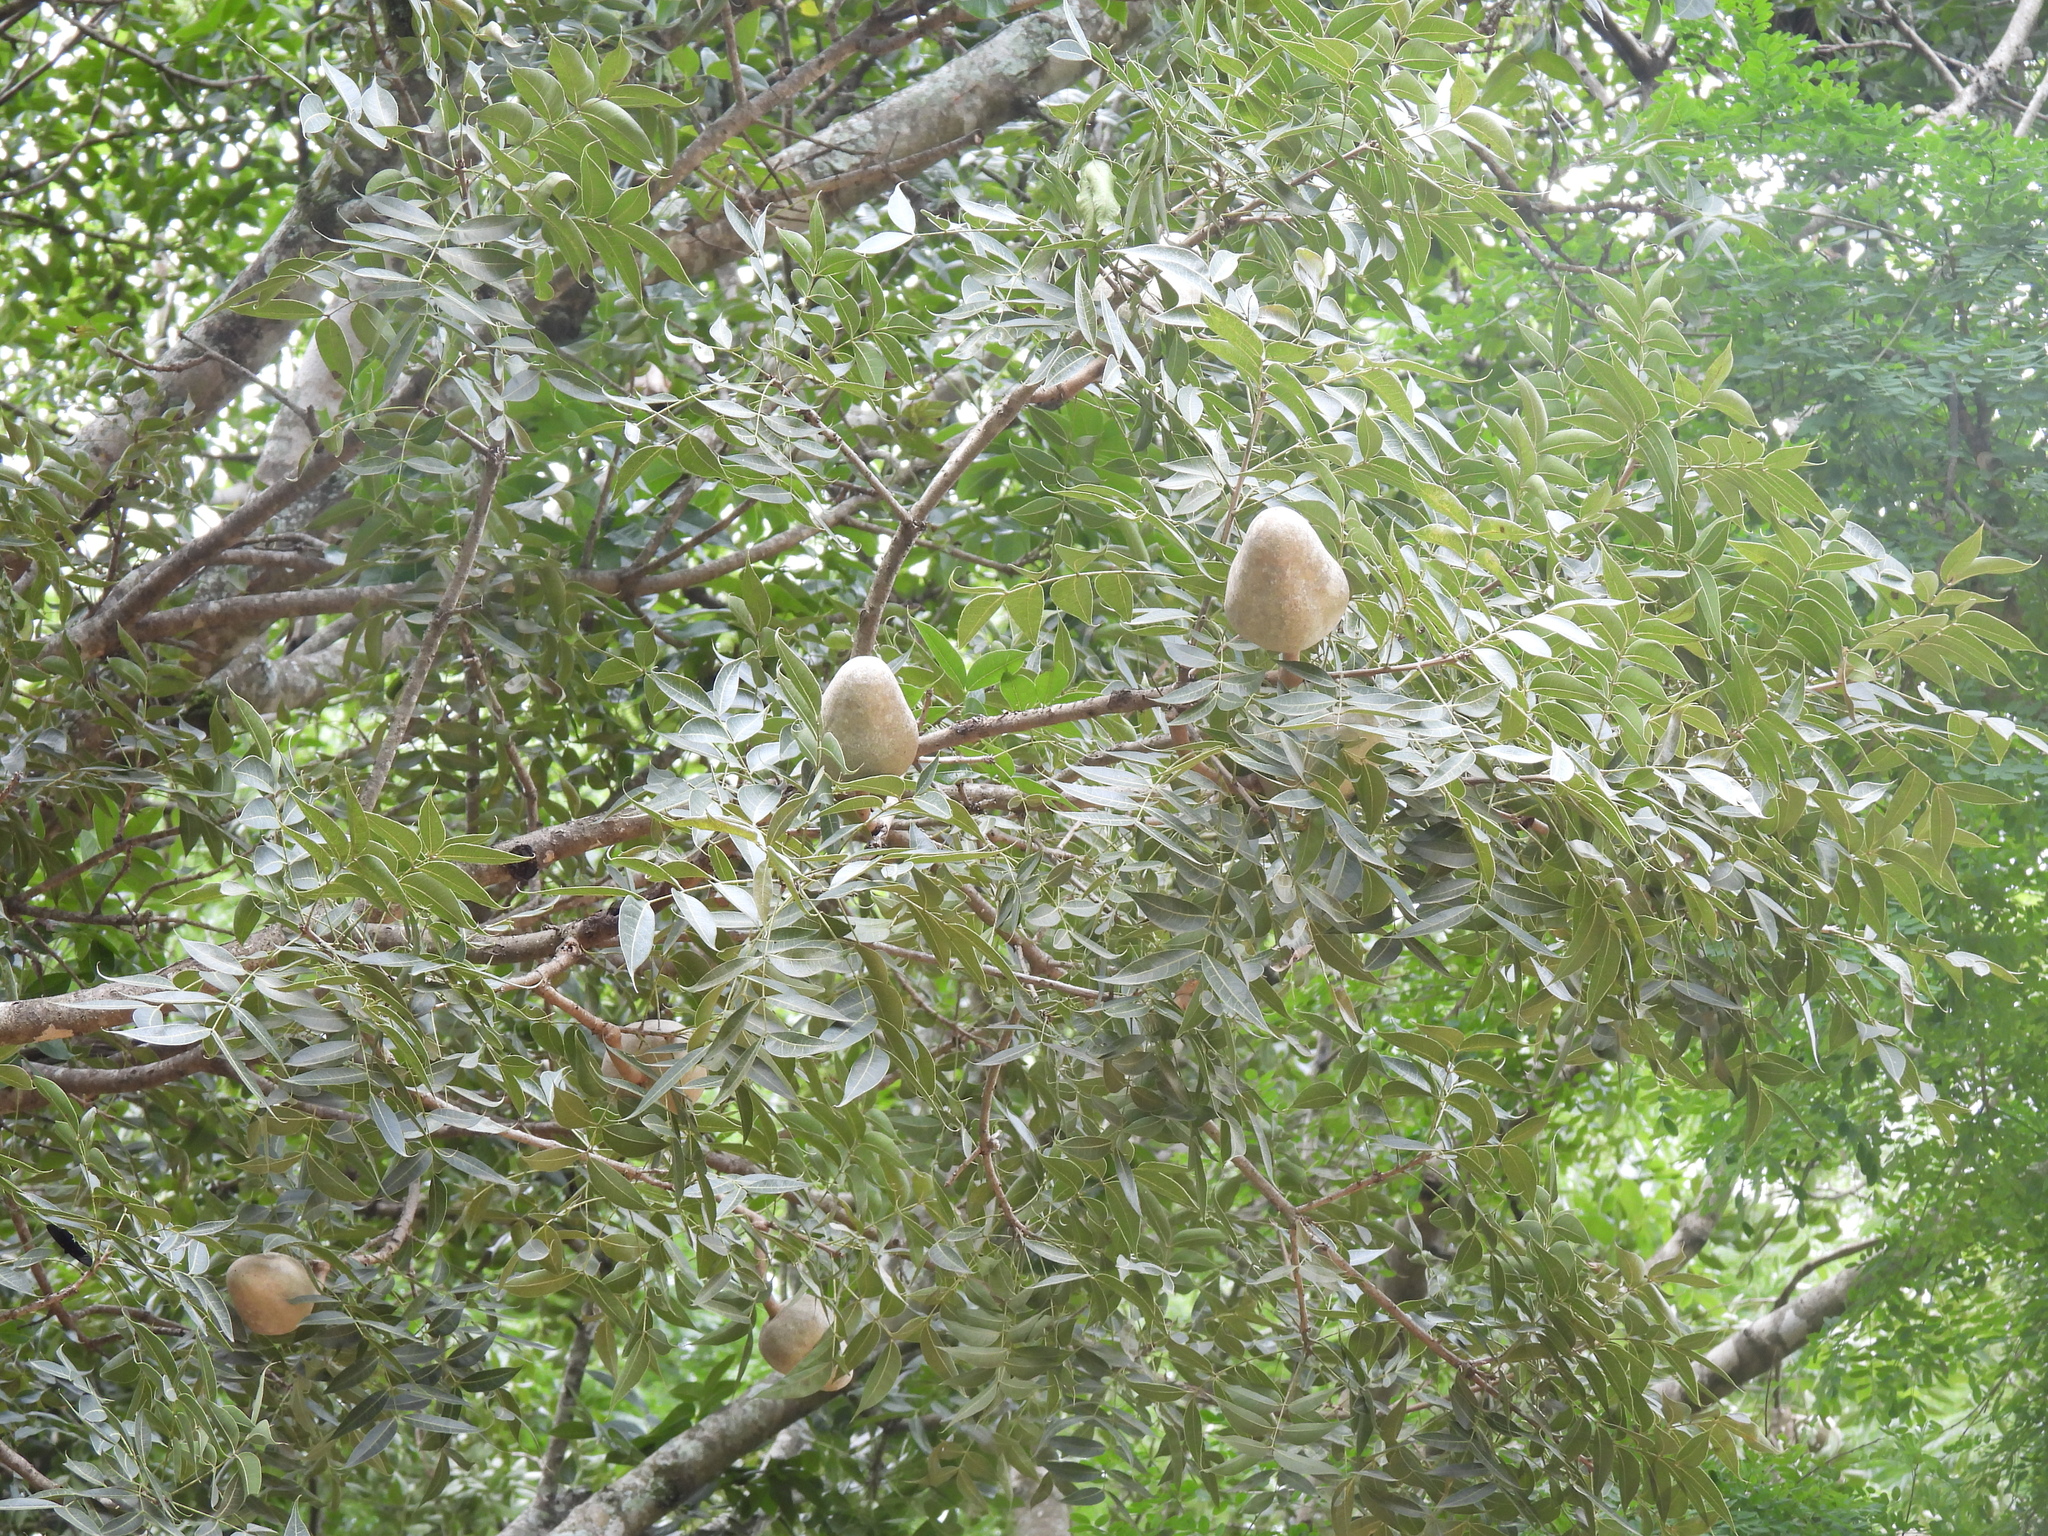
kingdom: Plantae
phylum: Tracheophyta
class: Magnoliopsida
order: Sapindales
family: Meliaceae
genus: Swietenia
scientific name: Swietenia humilis
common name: Pacific coast mahogany
